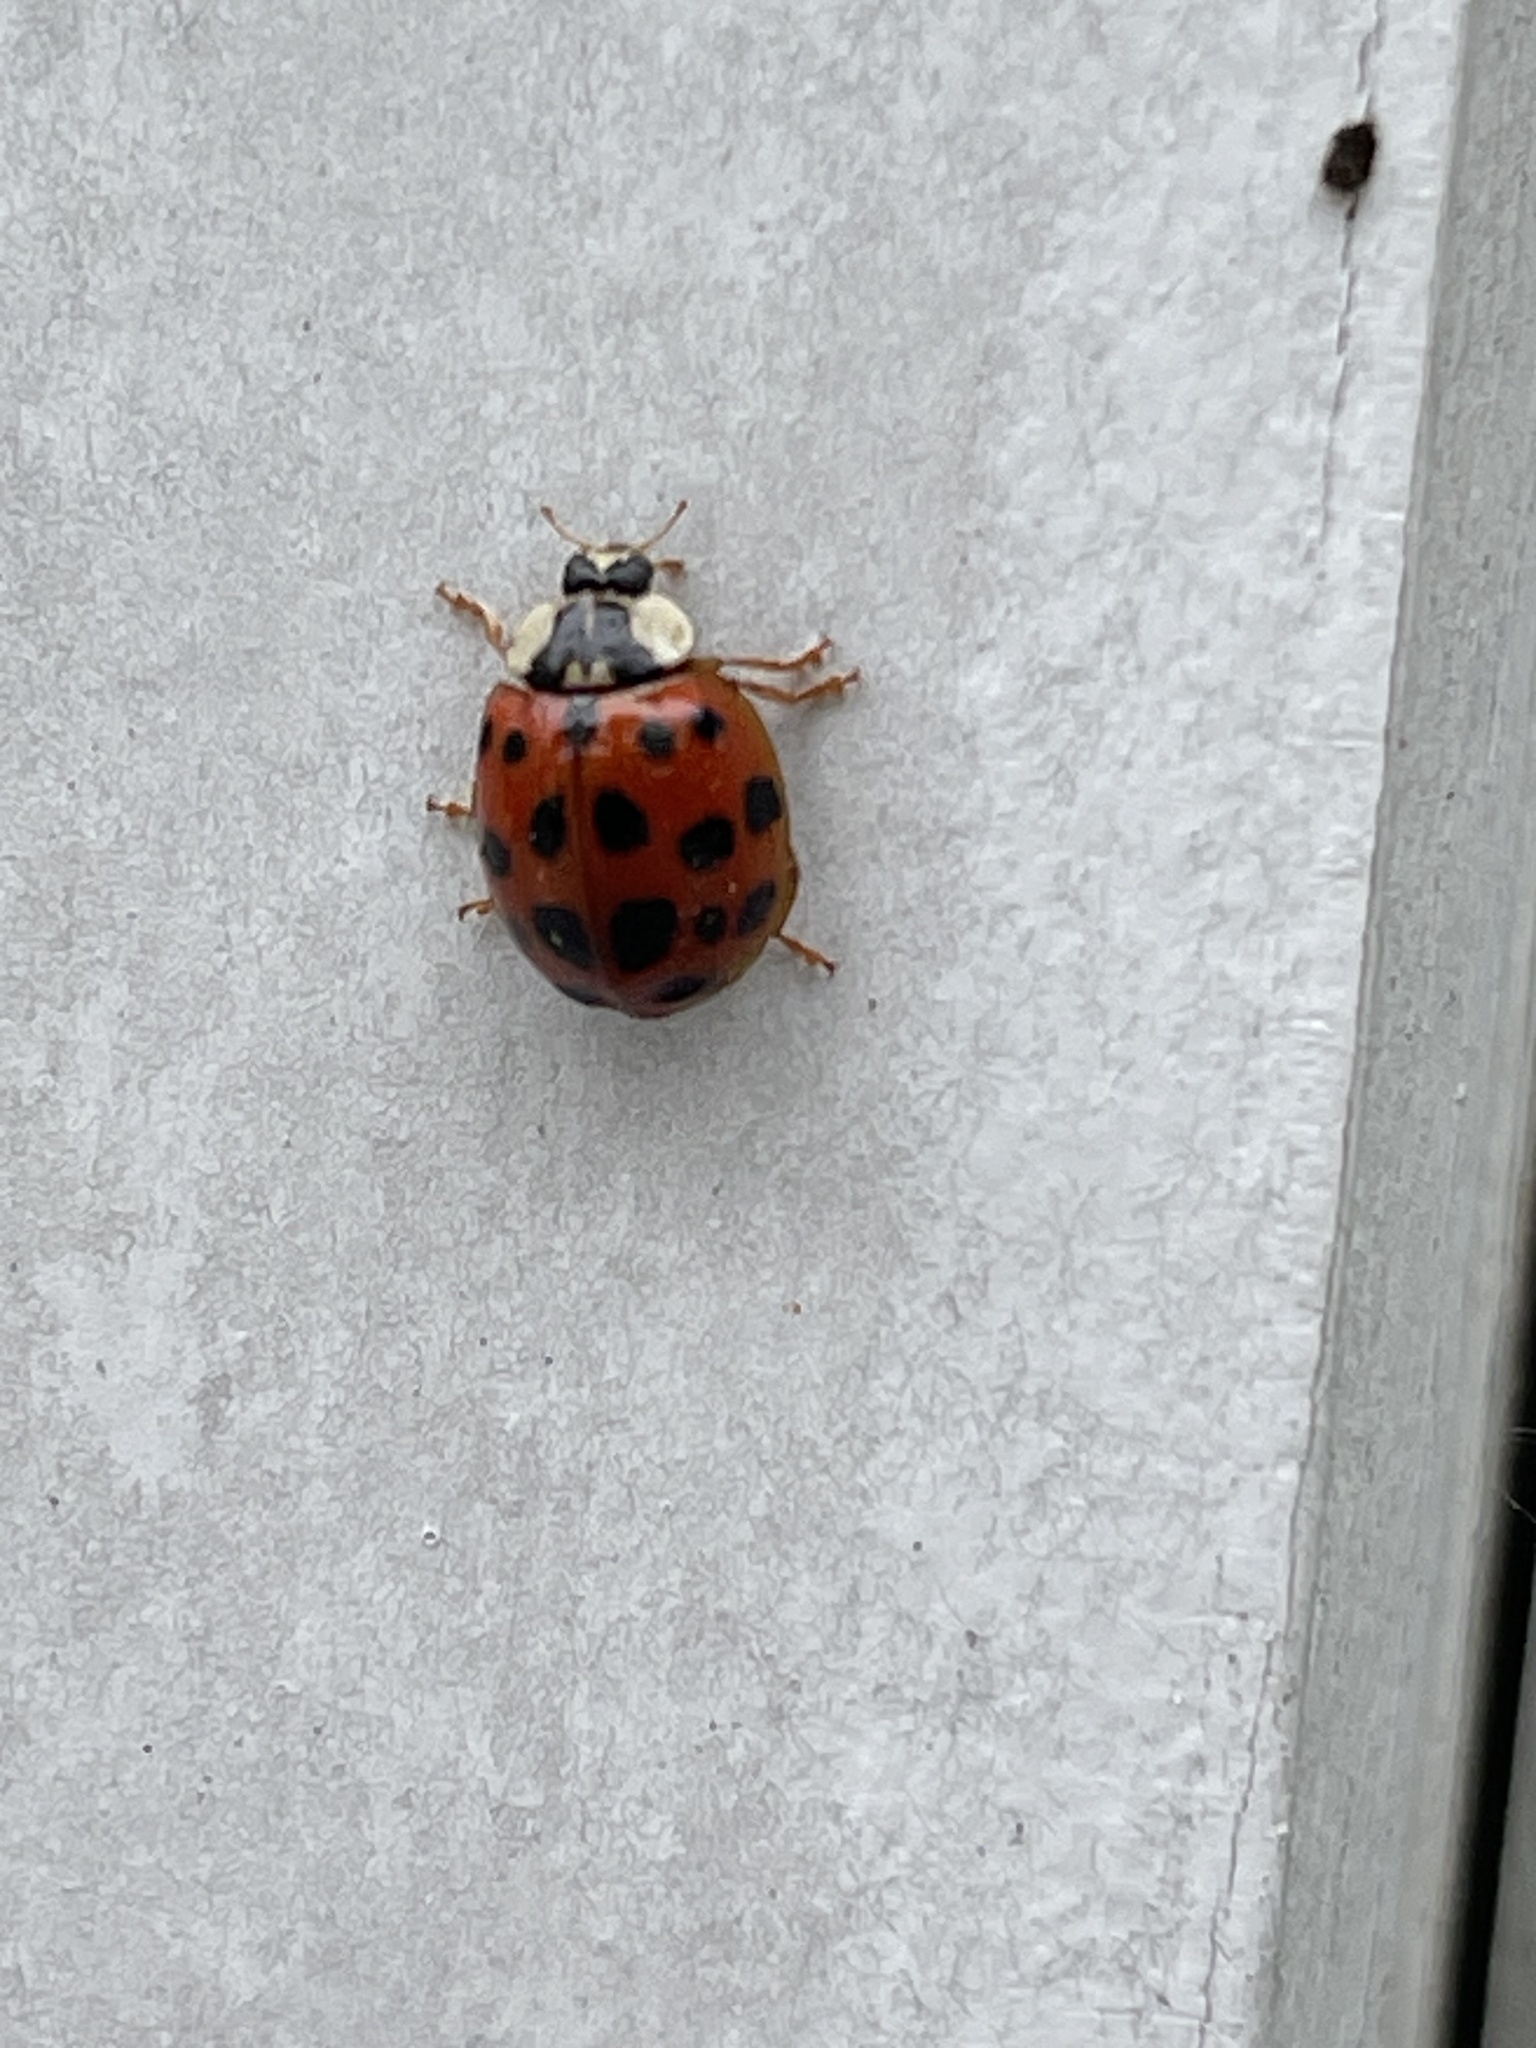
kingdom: Animalia
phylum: Arthropoda
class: Insecta
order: Coleoptera
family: Coccinellidae
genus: Harmonia
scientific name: Harmonia axyridis
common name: Harlequin ladybird
